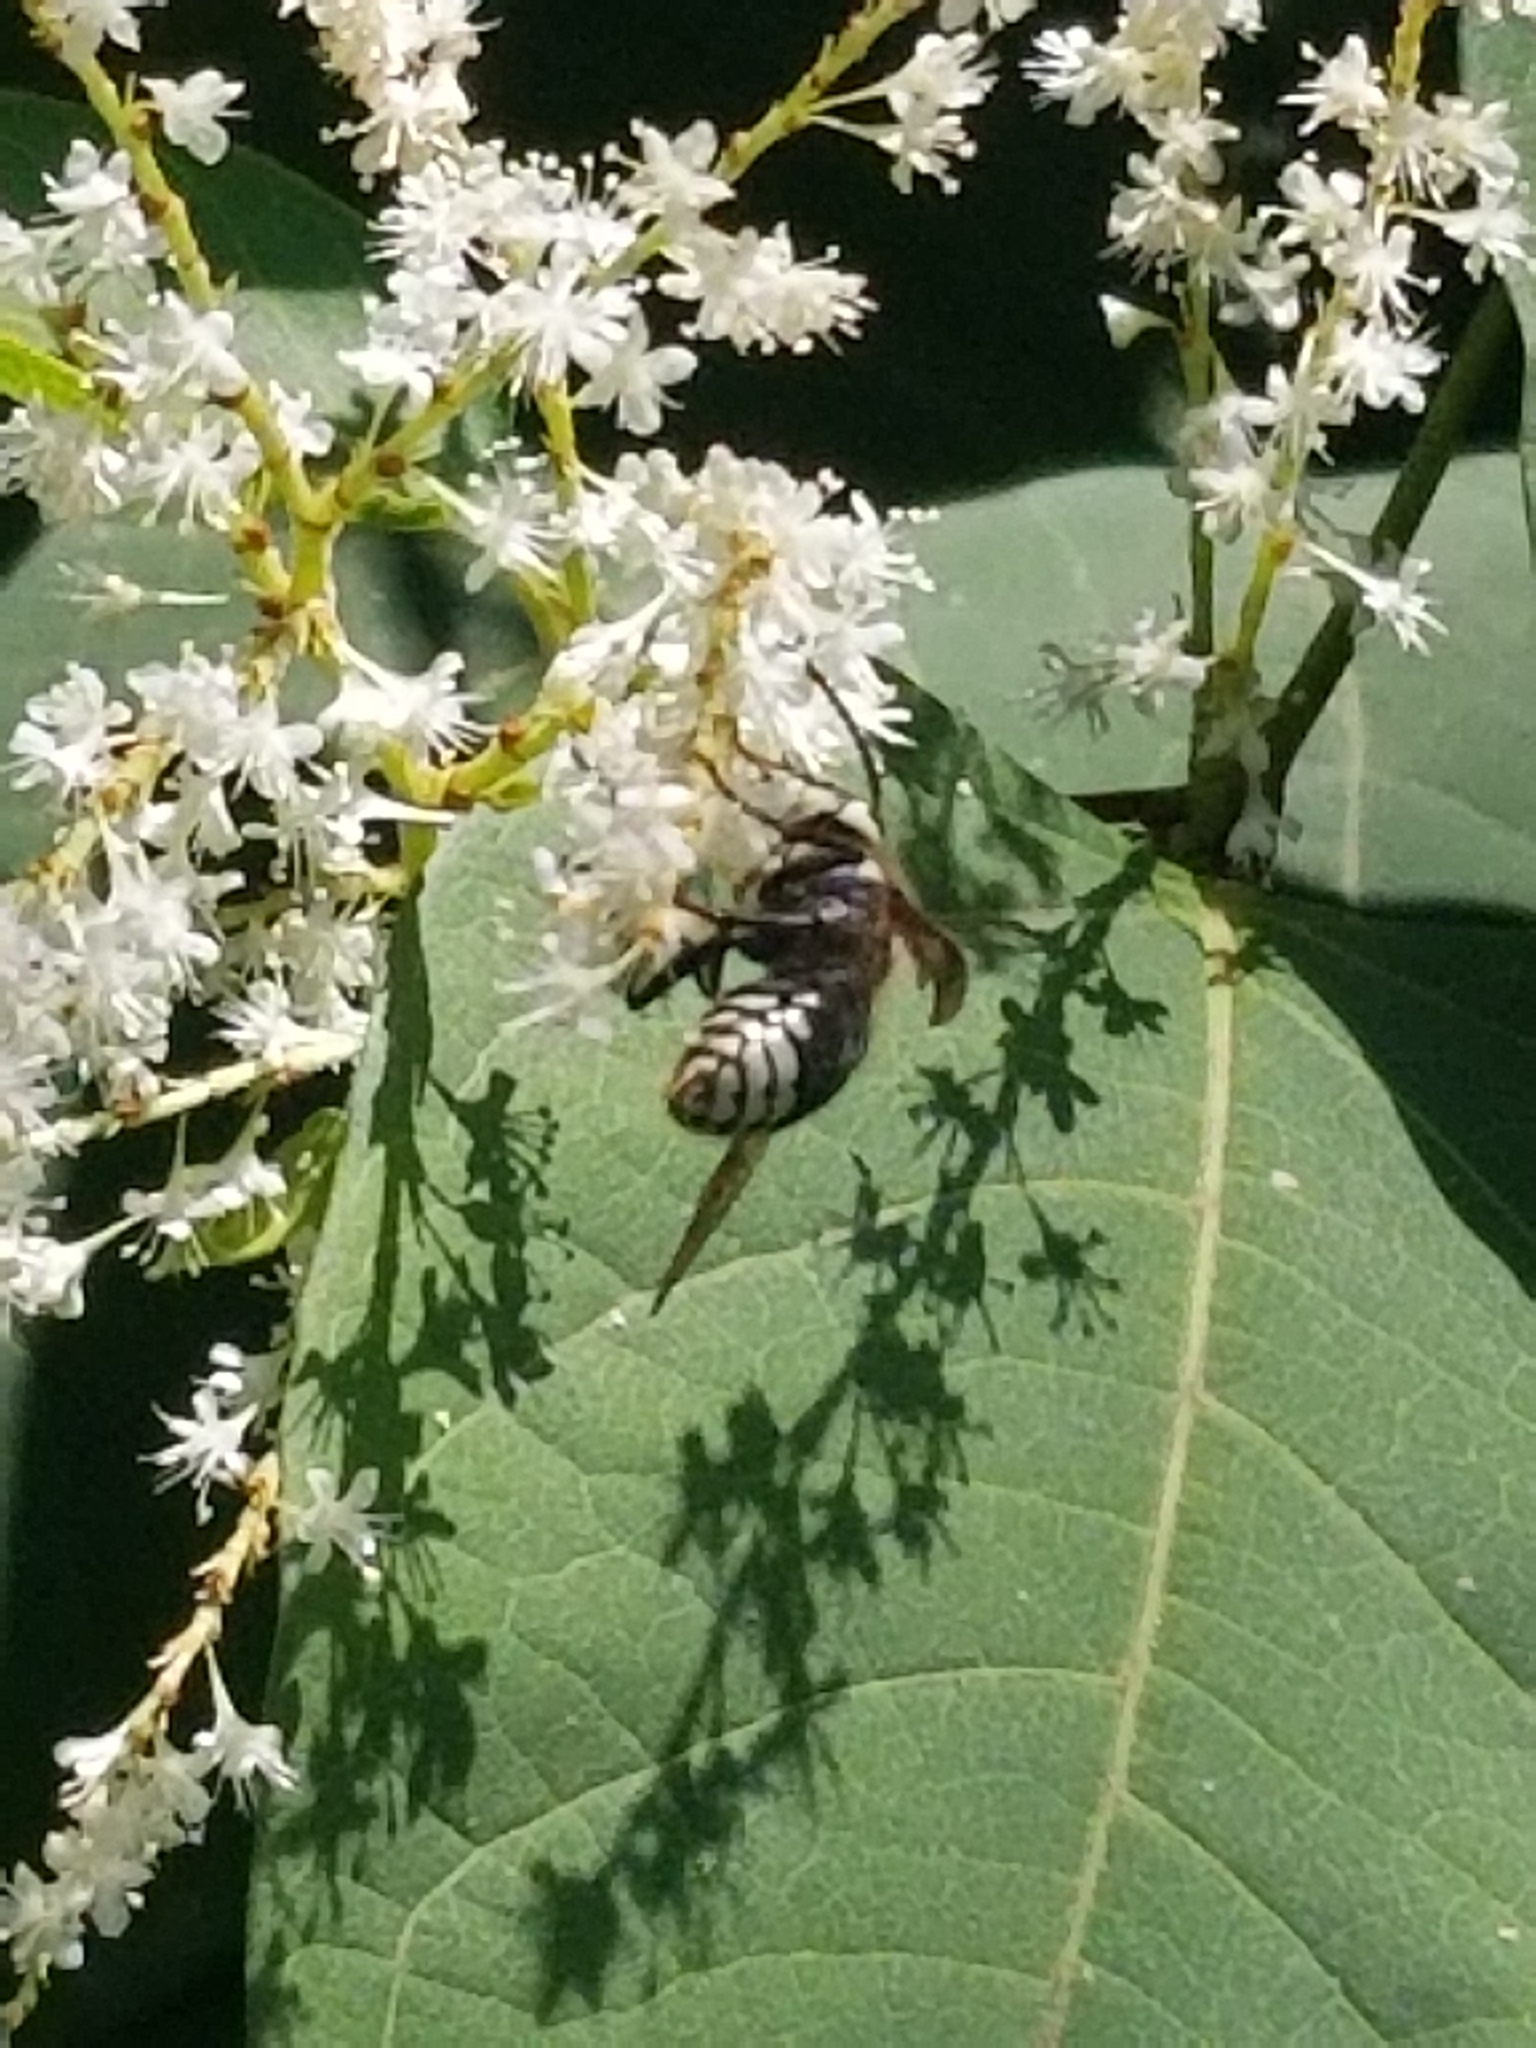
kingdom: Animalia
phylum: Arthropoda
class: Insecta
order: Hymenoptera
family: Vespidae
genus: Dolichovespula
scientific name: Dolichovespula maculata
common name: Bald-faced hornet
